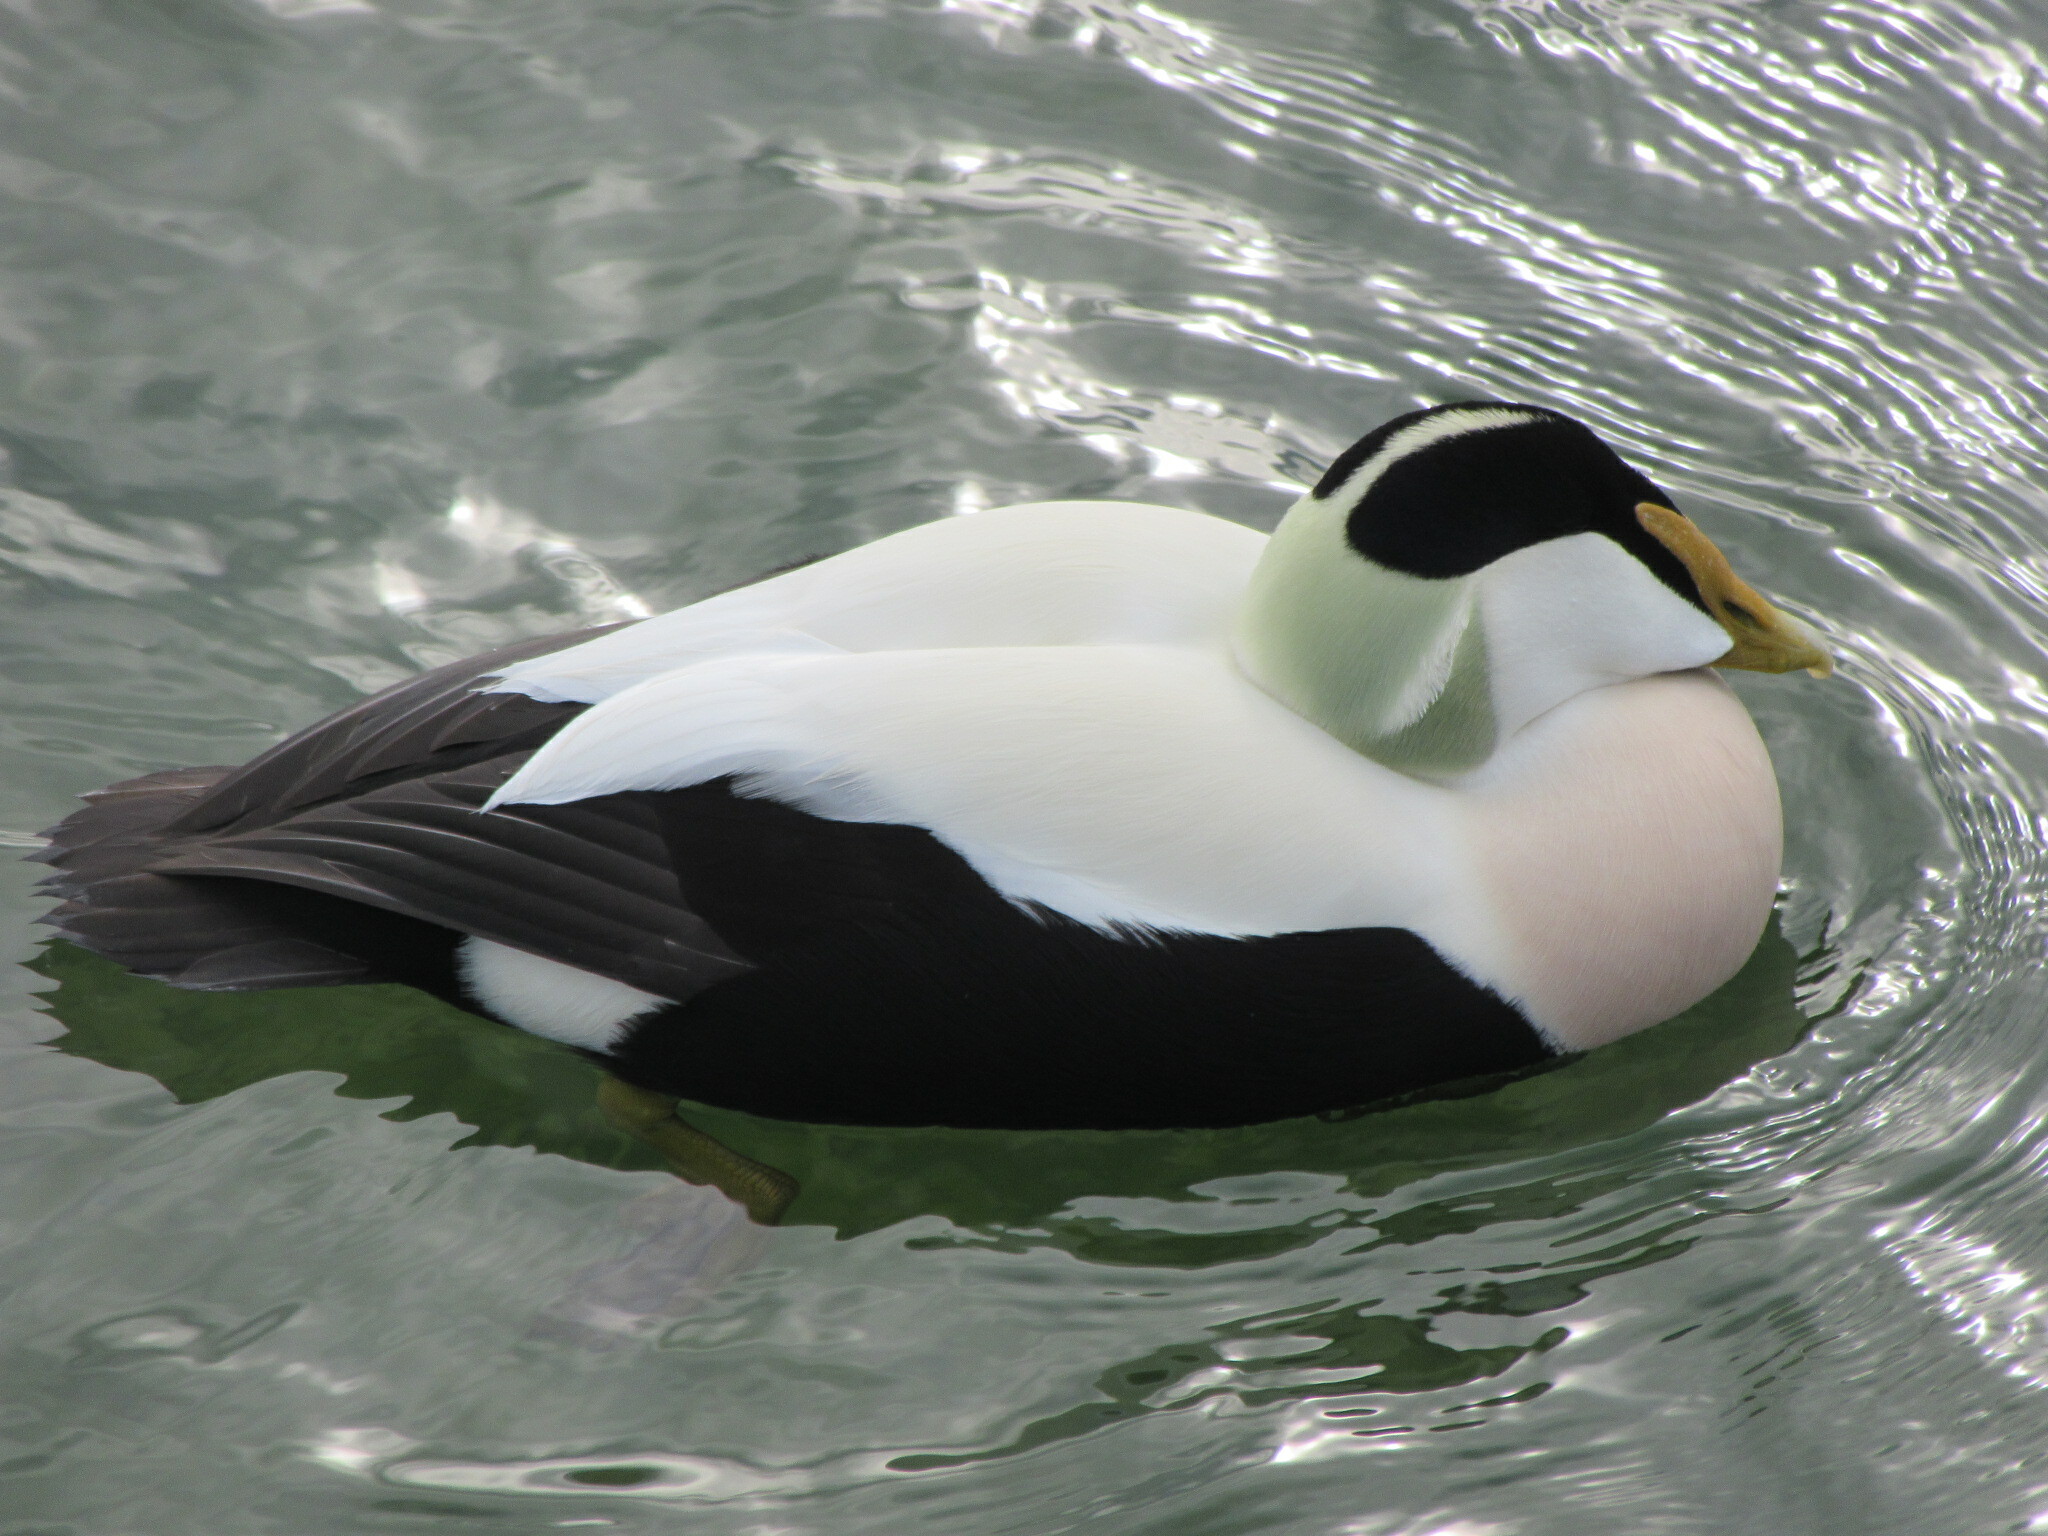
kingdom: Animalia
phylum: Chordata
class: Aves
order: Anseriformes
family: Anatidae
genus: Somateria
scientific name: Somateria mollissima
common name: Common eider
